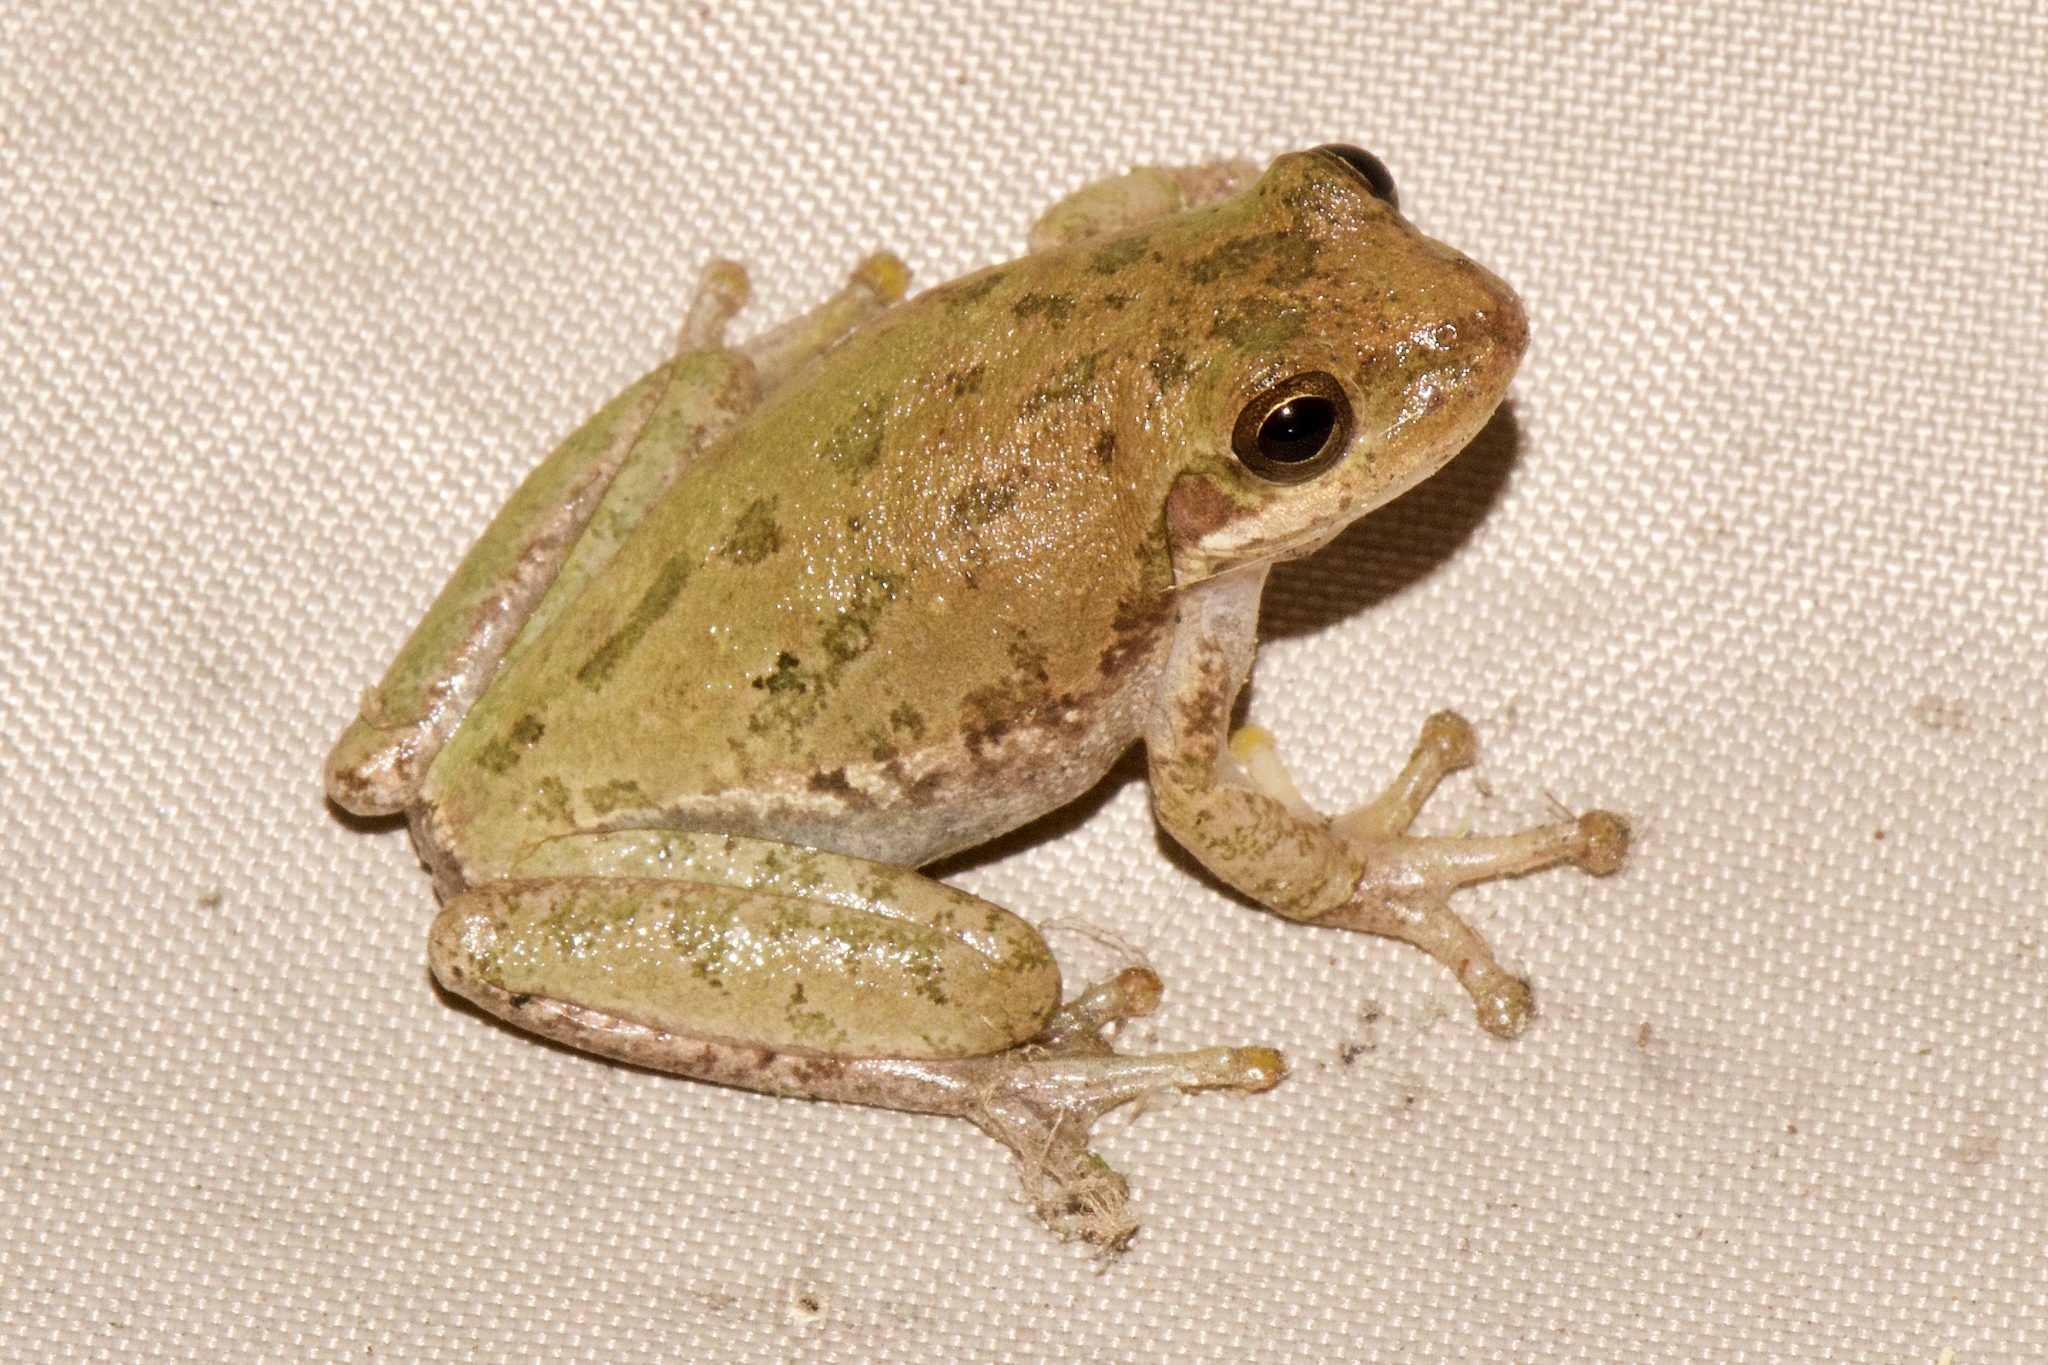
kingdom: Animalia
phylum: Chordata
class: Amphibia
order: Anura
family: Hylidae
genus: Dryophytes
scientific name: Dryophytes squirellus
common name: Squirrel treefrog
